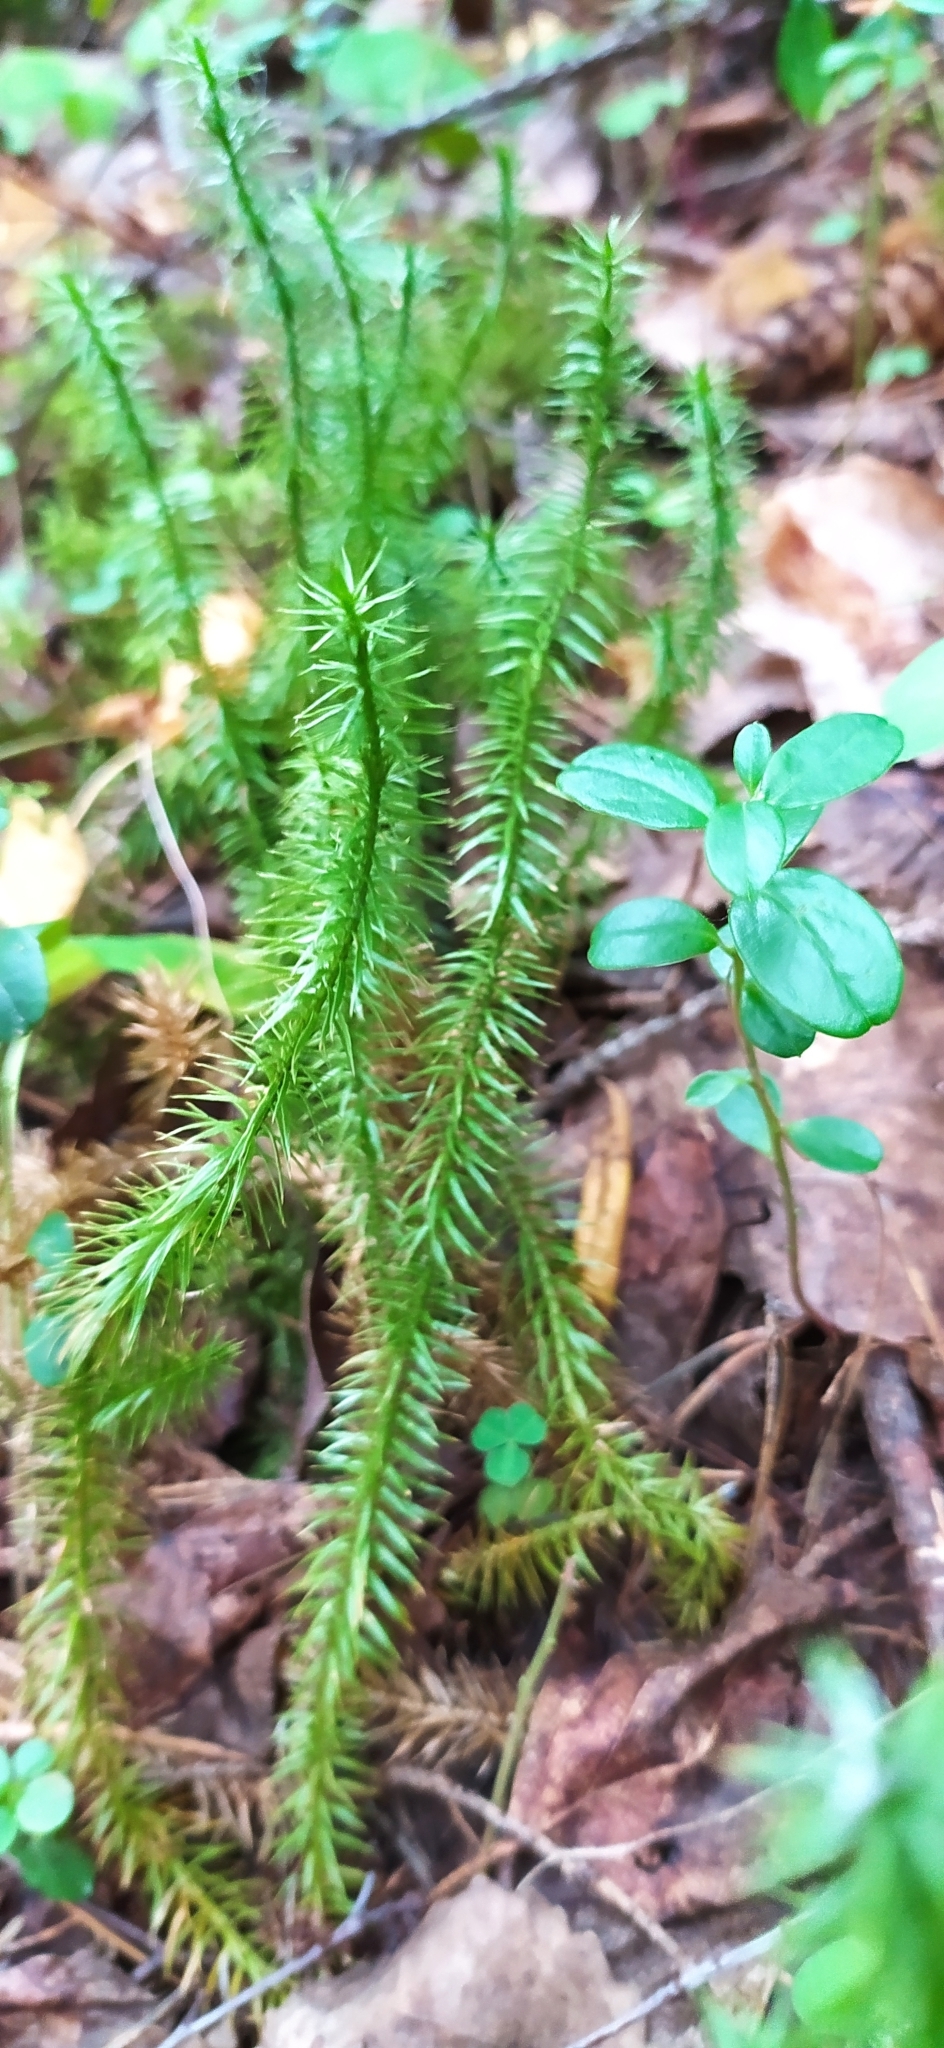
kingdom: Plantae
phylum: Tracheophyta
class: Lycopodiopsida
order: Lycopodiales
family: Lycopodiaceae
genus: Spinulum
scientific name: Spinulum annotinum
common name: Interrupted club-moss
